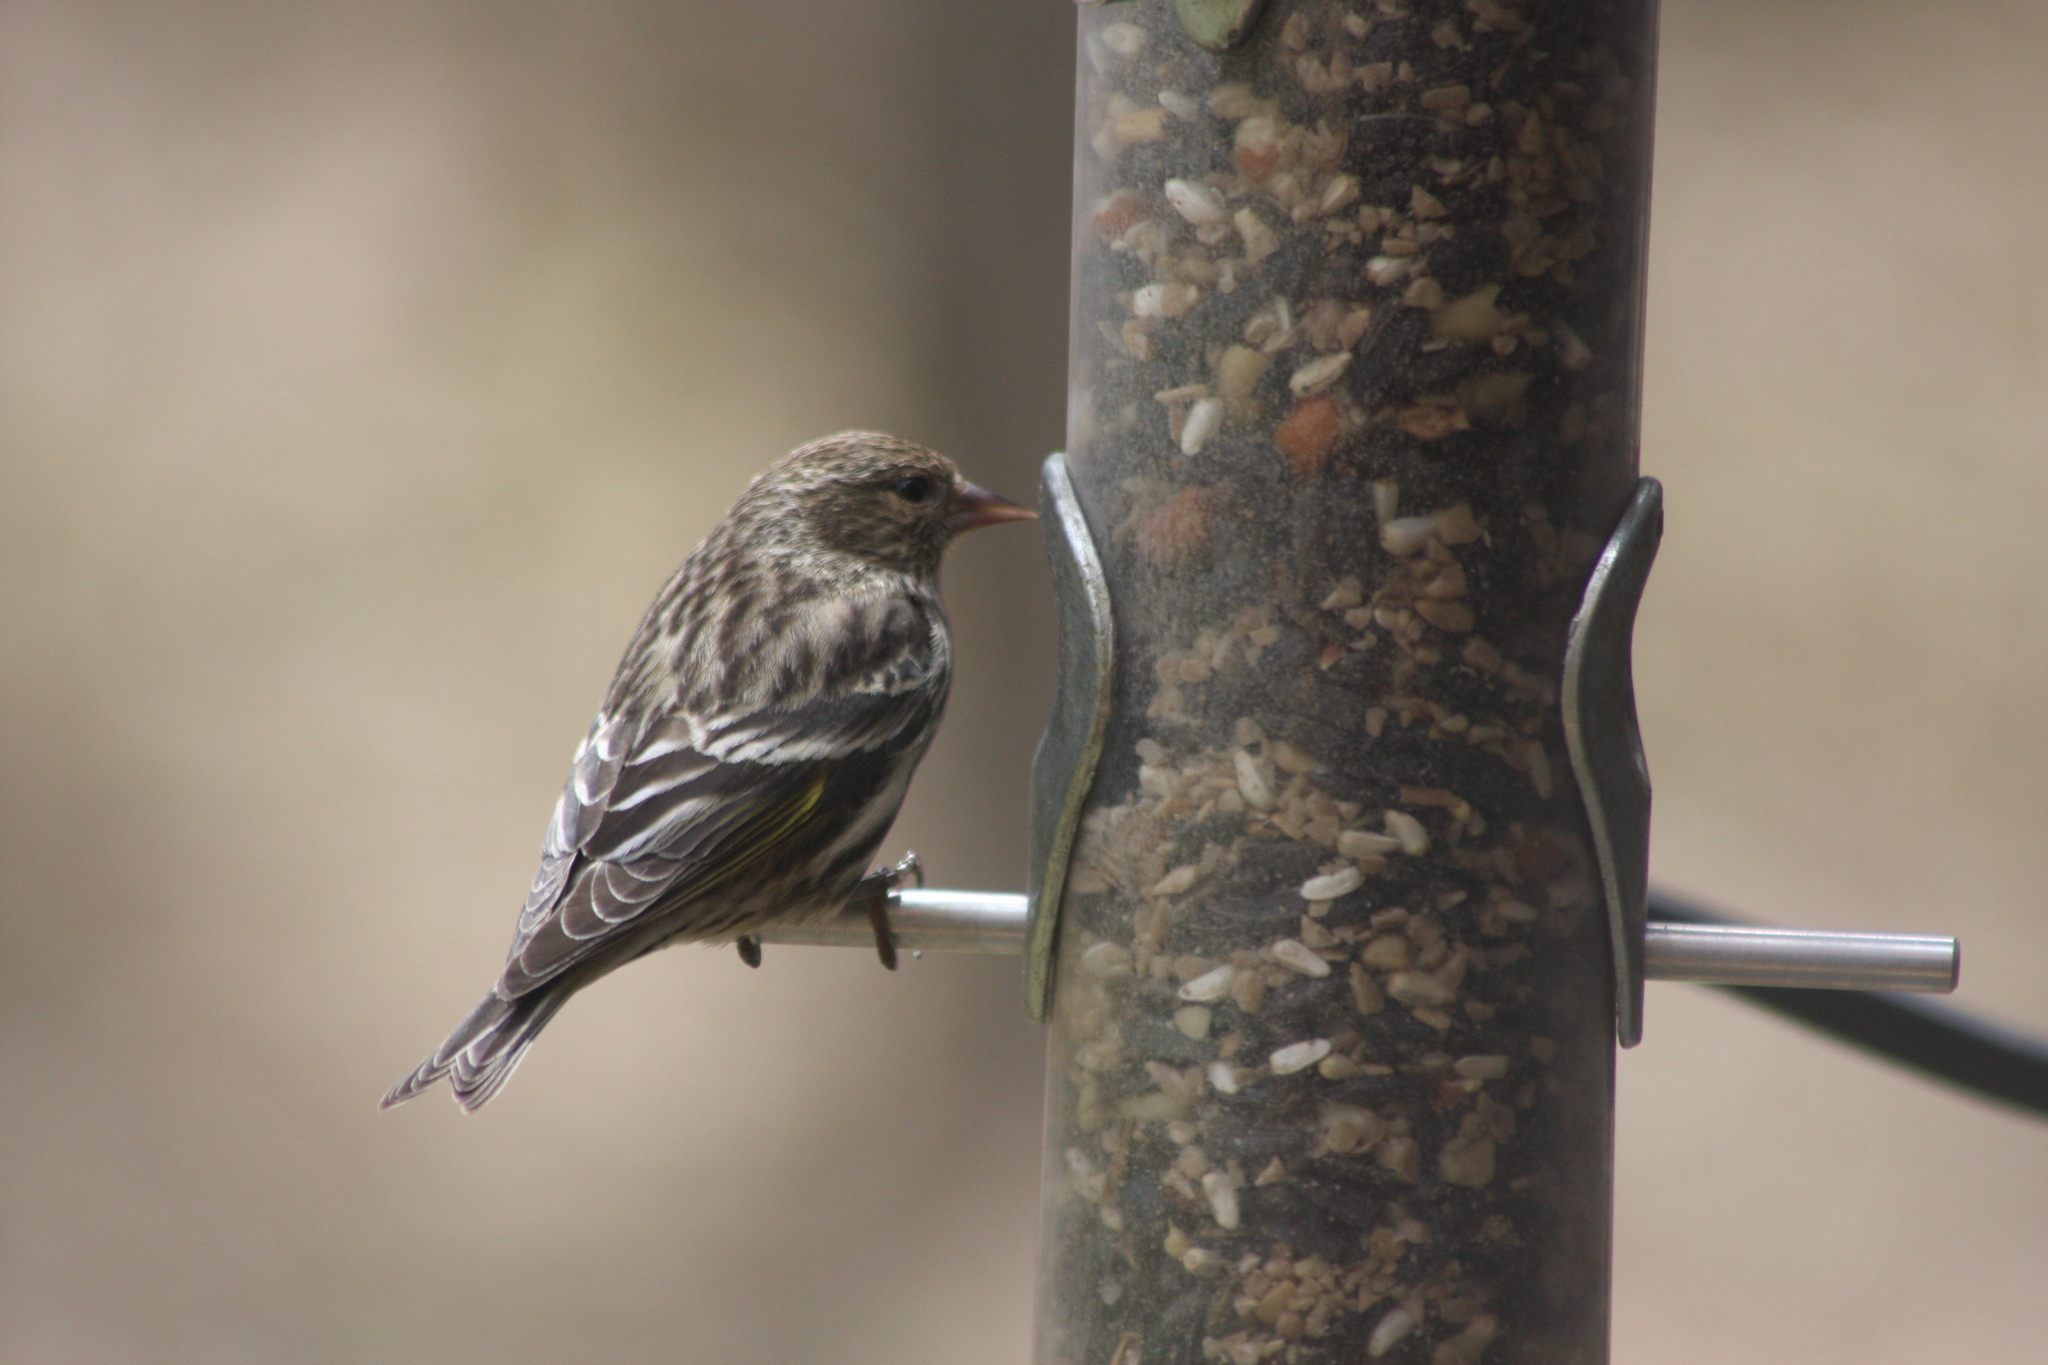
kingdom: Animalia
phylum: Chordata
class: Aves
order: Passeriformes
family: Fringillidae
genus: Spinus
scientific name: Spinus pinus
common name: Pine siskin
